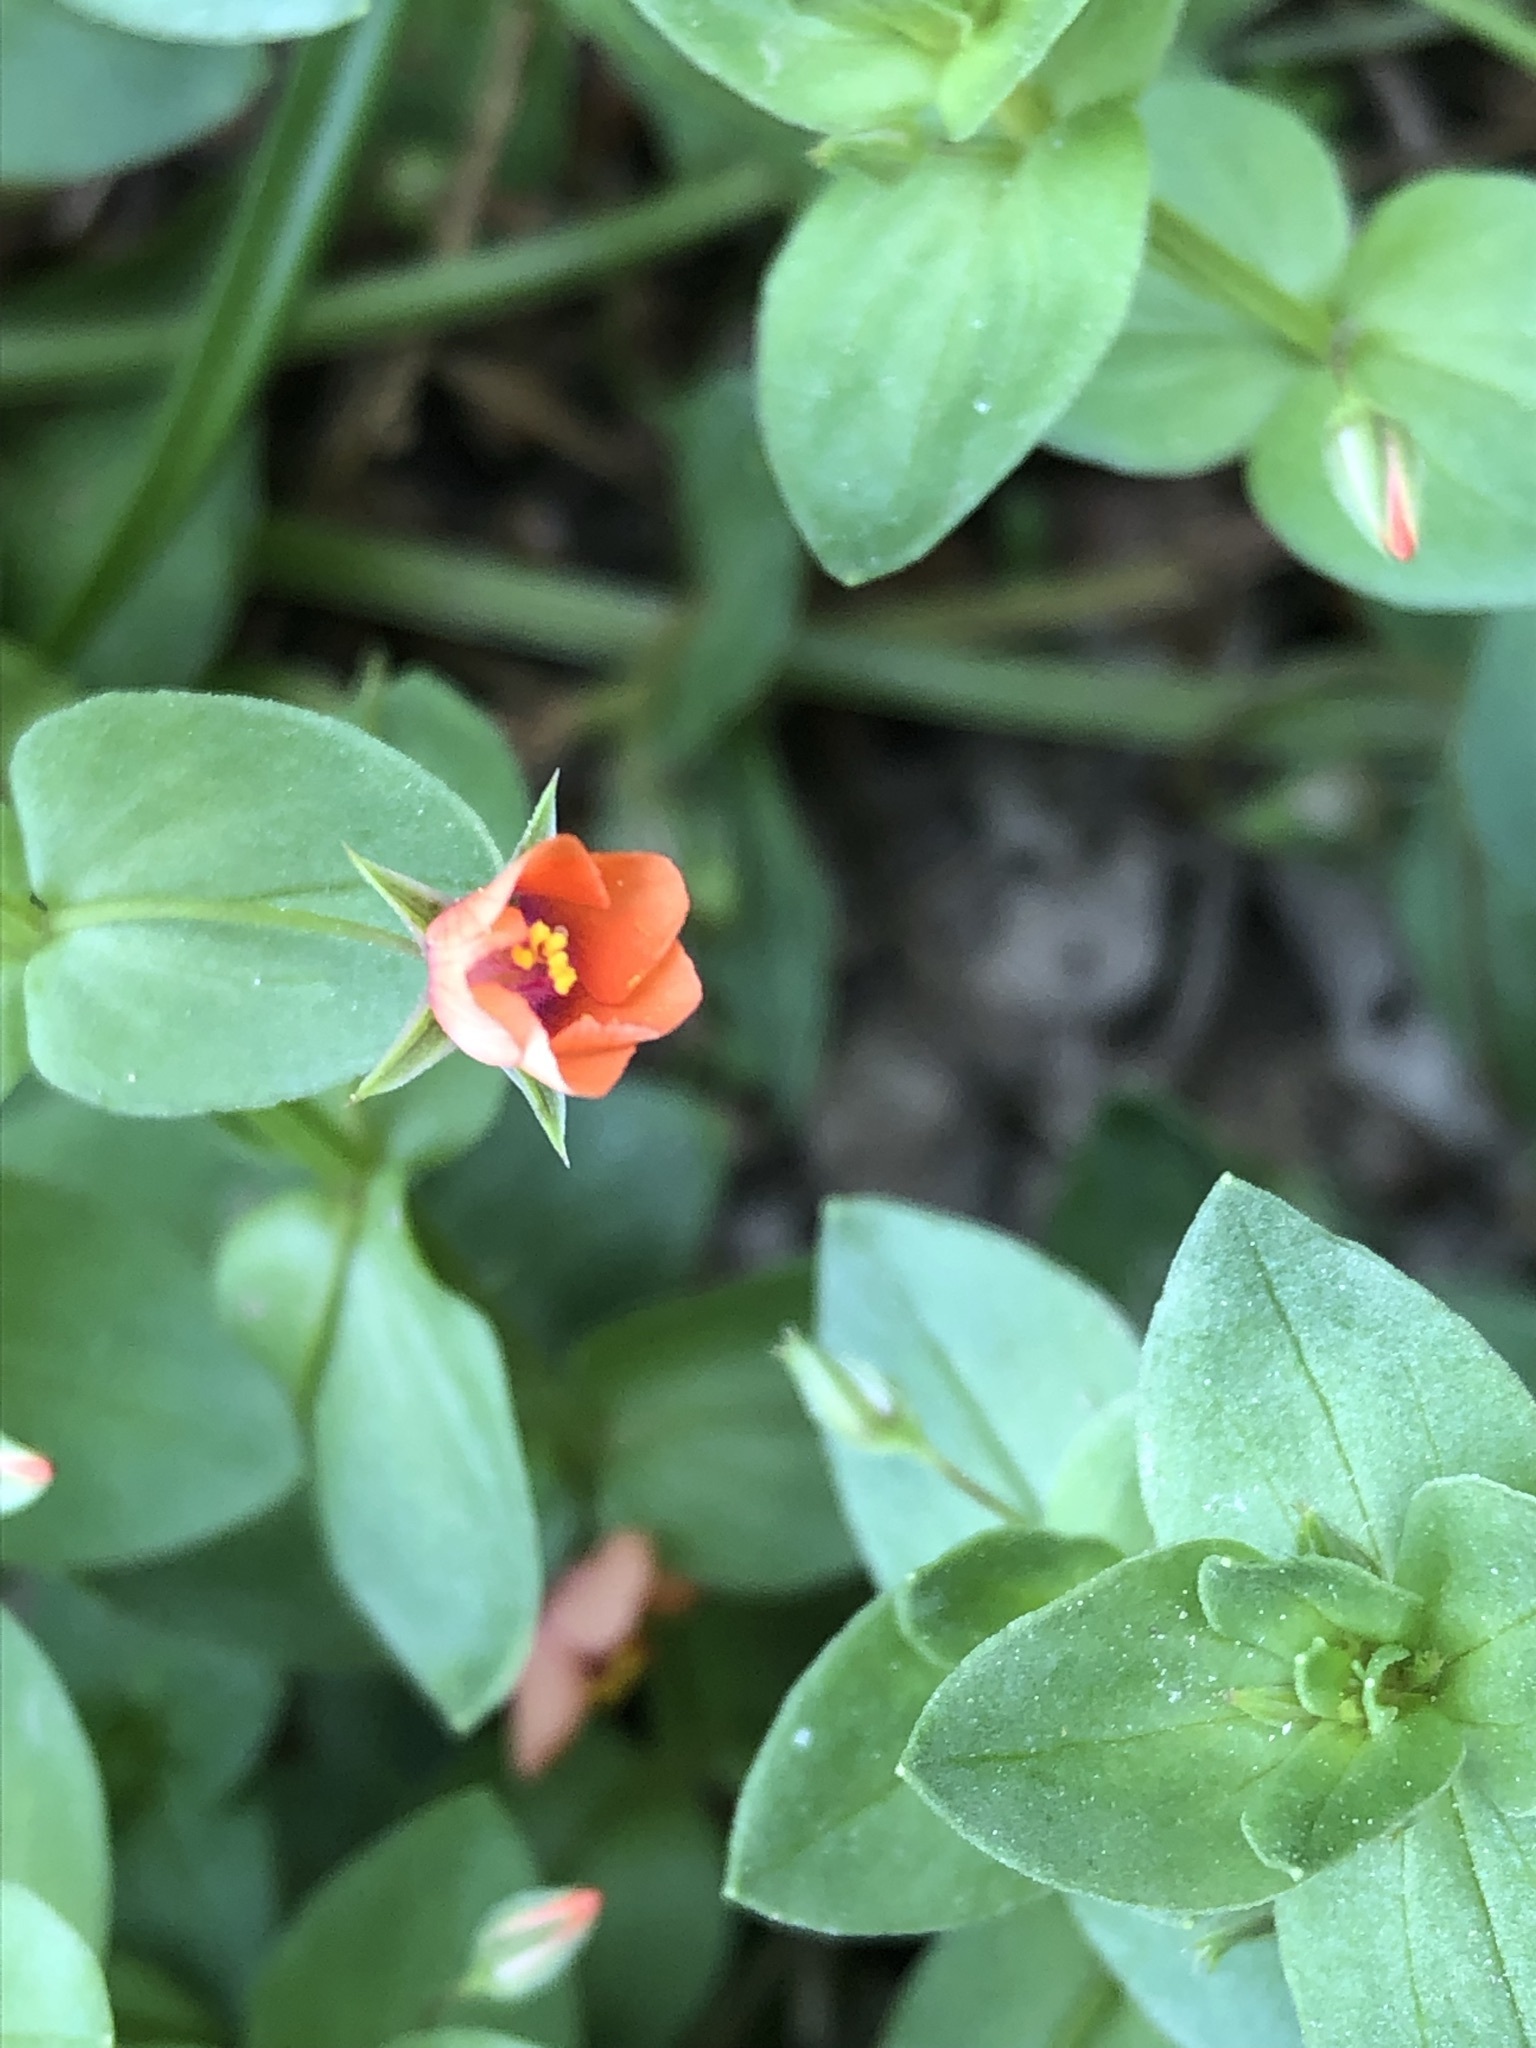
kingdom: Plantae
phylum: Tracheophyta
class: Magnoliopsida
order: Ericales
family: Primulaceae
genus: Lysimachia
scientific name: Lysimachia arvensis
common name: Scarlet pimpernel
